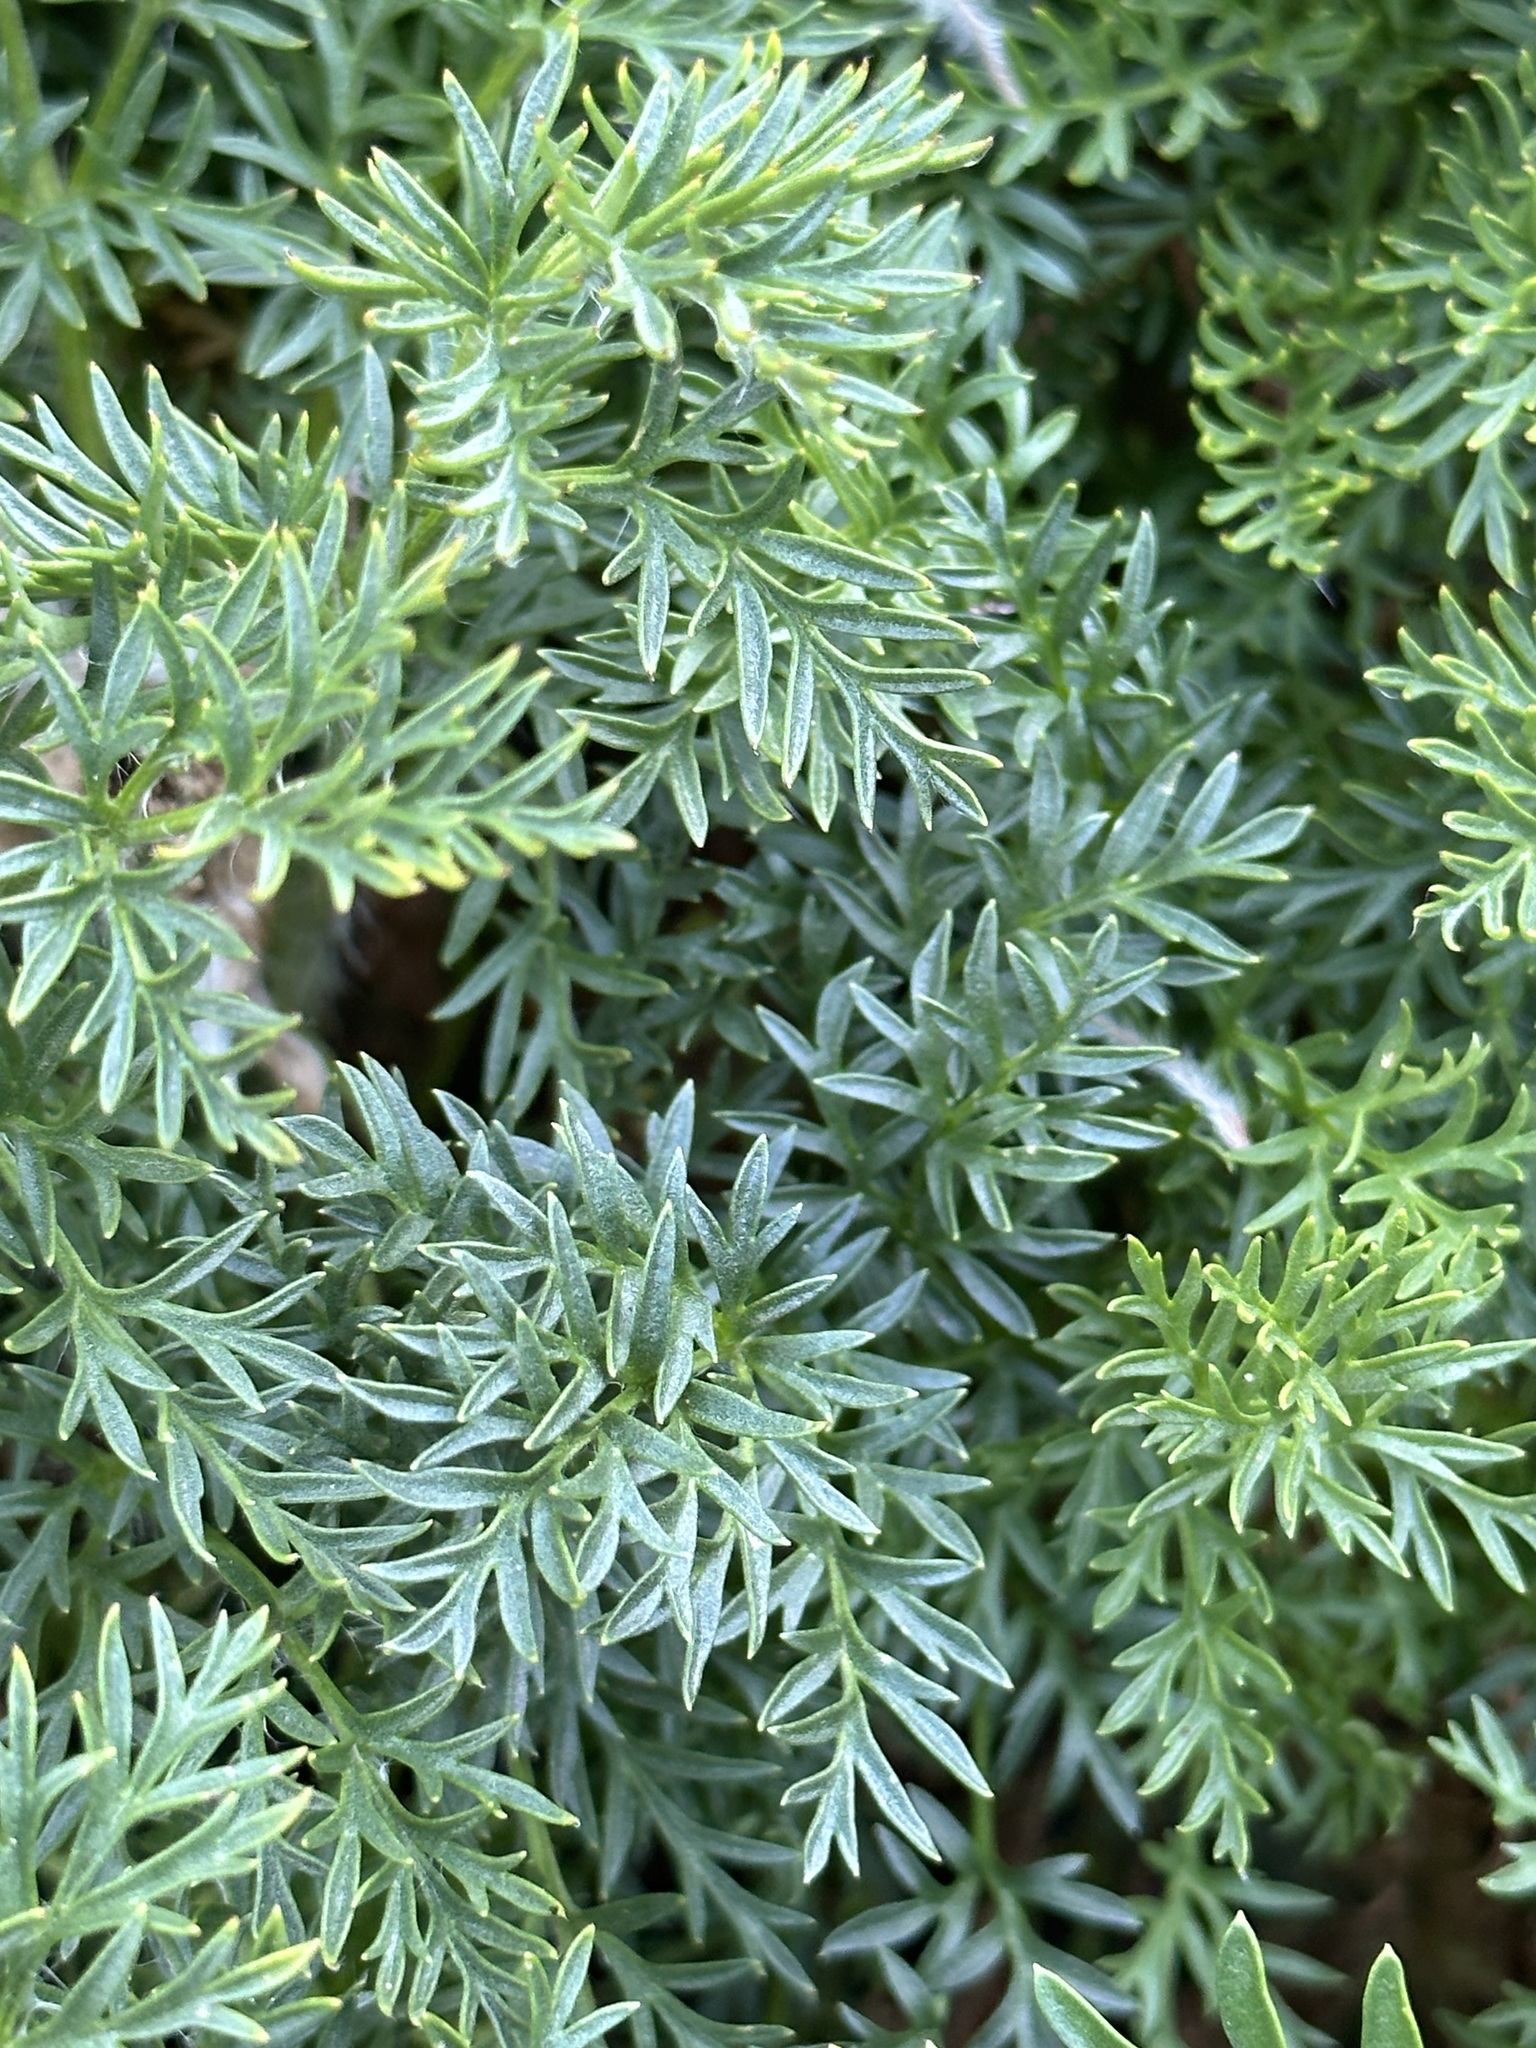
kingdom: Plantae
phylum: Tracheophyta
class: Magnoliopsida
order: Ranunculales
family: Ranunculaceae
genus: Pulsatilla
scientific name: Pulsatilla occidentalis
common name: Mountain pasqueflower
